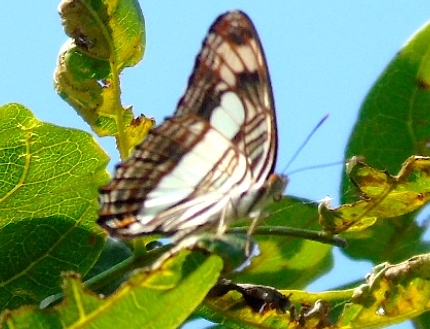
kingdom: Animalia
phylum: Arthropoda
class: Insecta
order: Lepidoptera
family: Nymphalidae
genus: Limenitis
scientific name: Limenitis iphiclus
